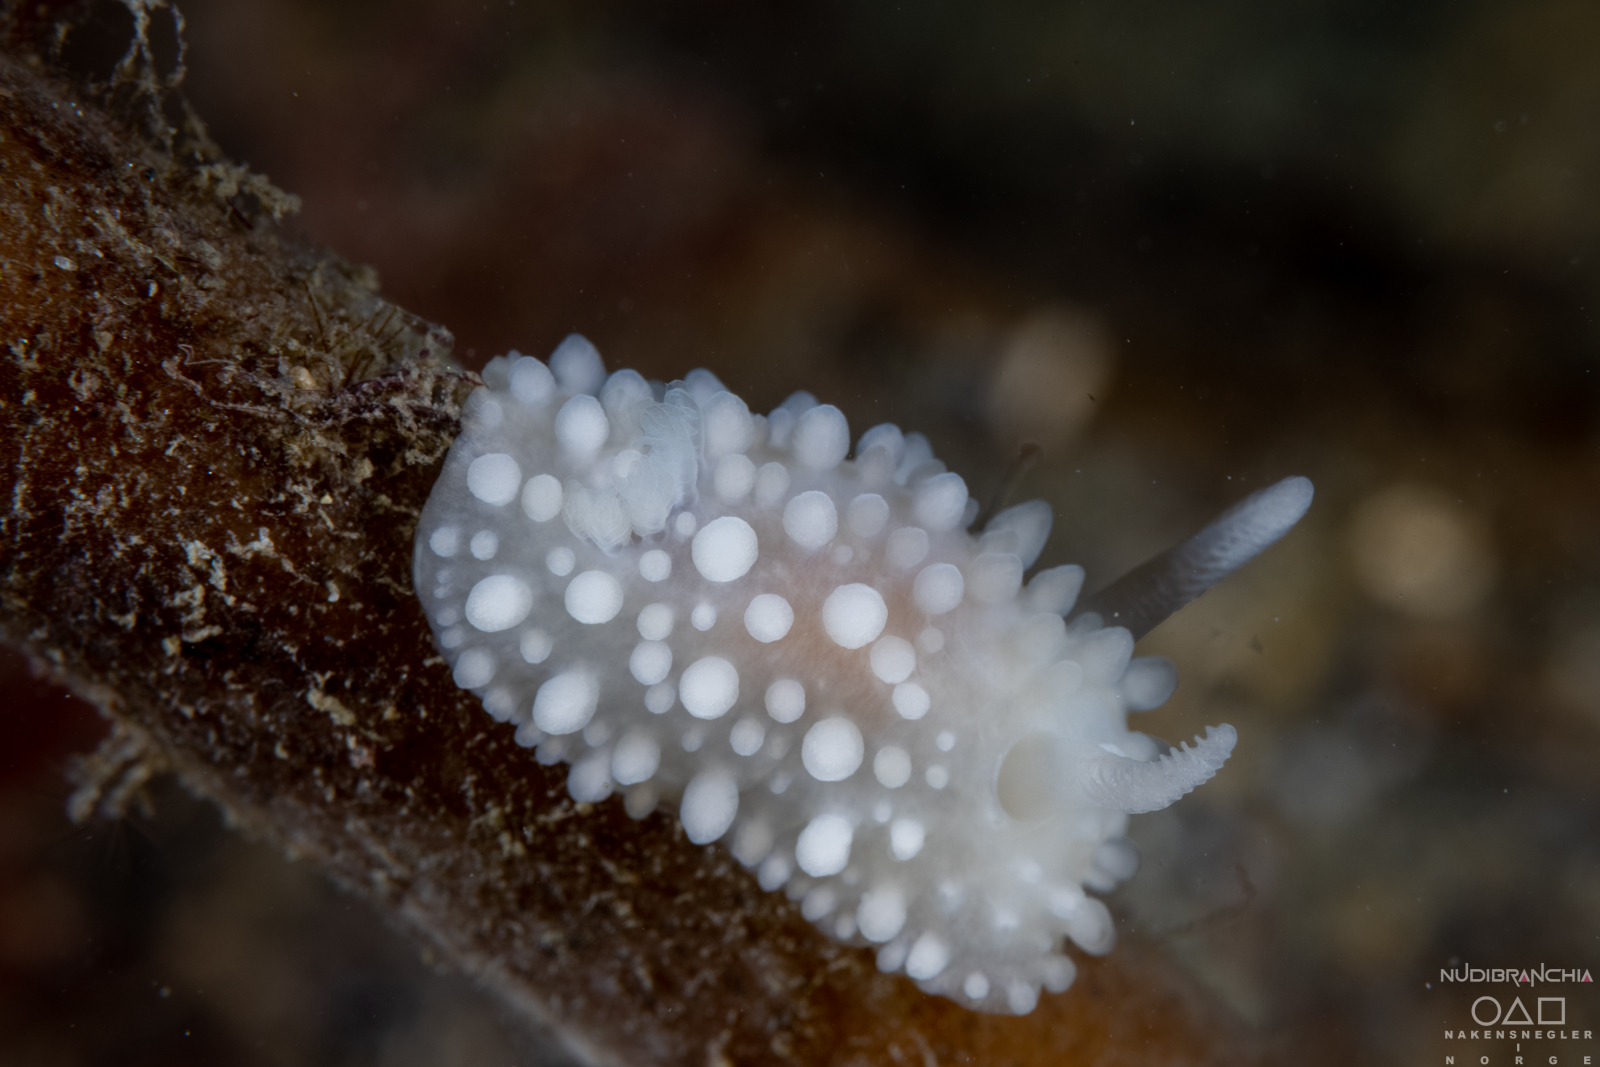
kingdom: Animalia
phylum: Mollusca
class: Gastropoda
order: Nudibranchia
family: Onchidorididae
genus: Adalaria
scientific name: Adalaria proxima
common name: False doris
